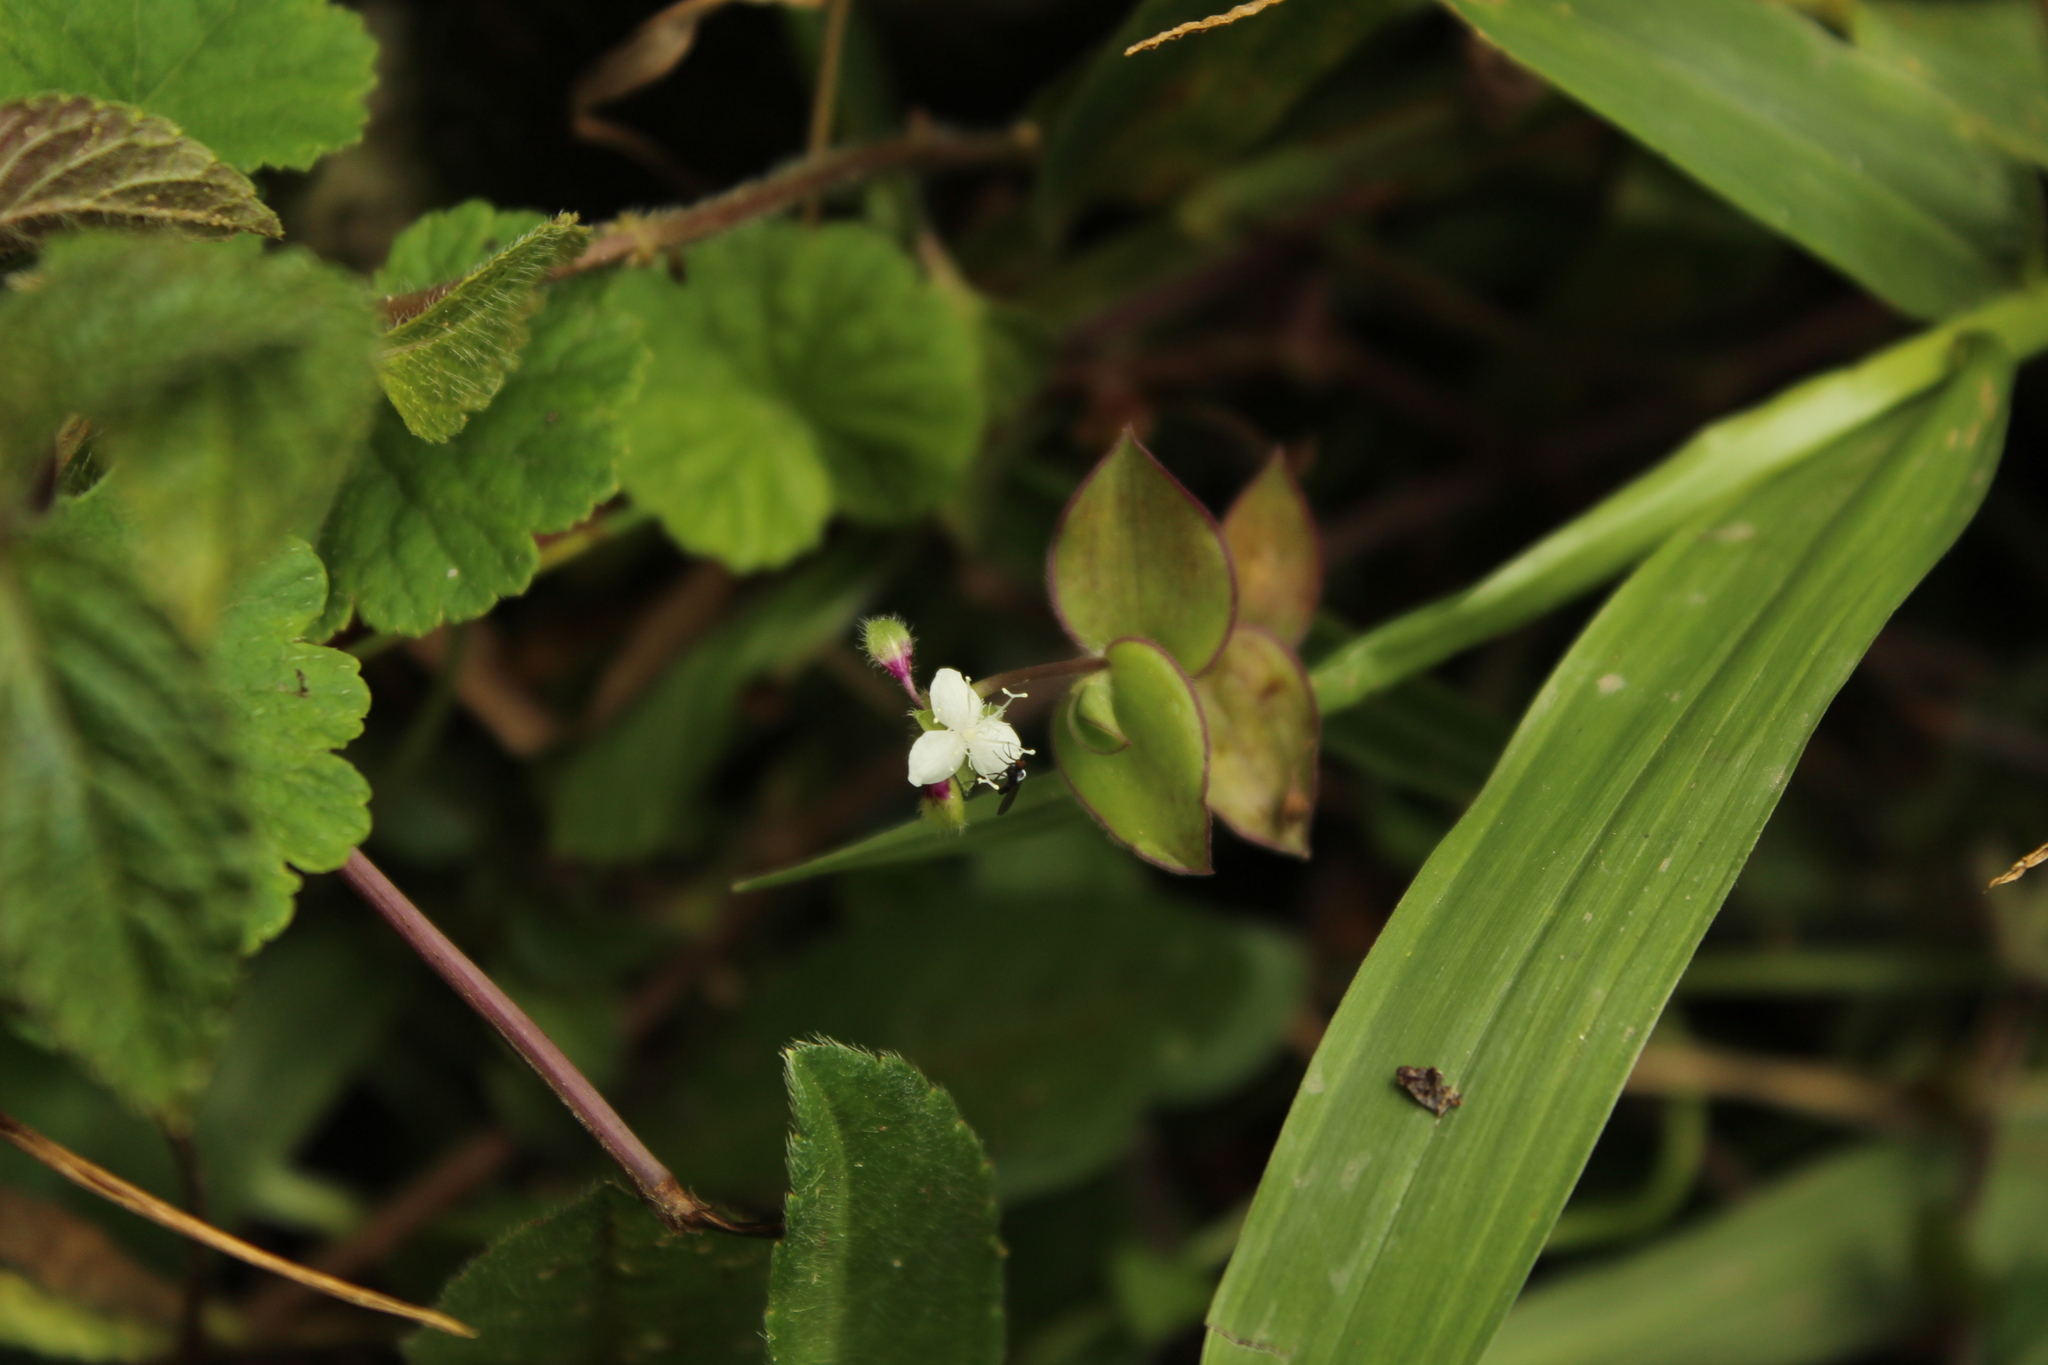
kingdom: Plantae
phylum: Tracheophyta
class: Liliopsida
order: Commelinales
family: Commelinaceae
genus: Callisia
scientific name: Callisia gracilis
